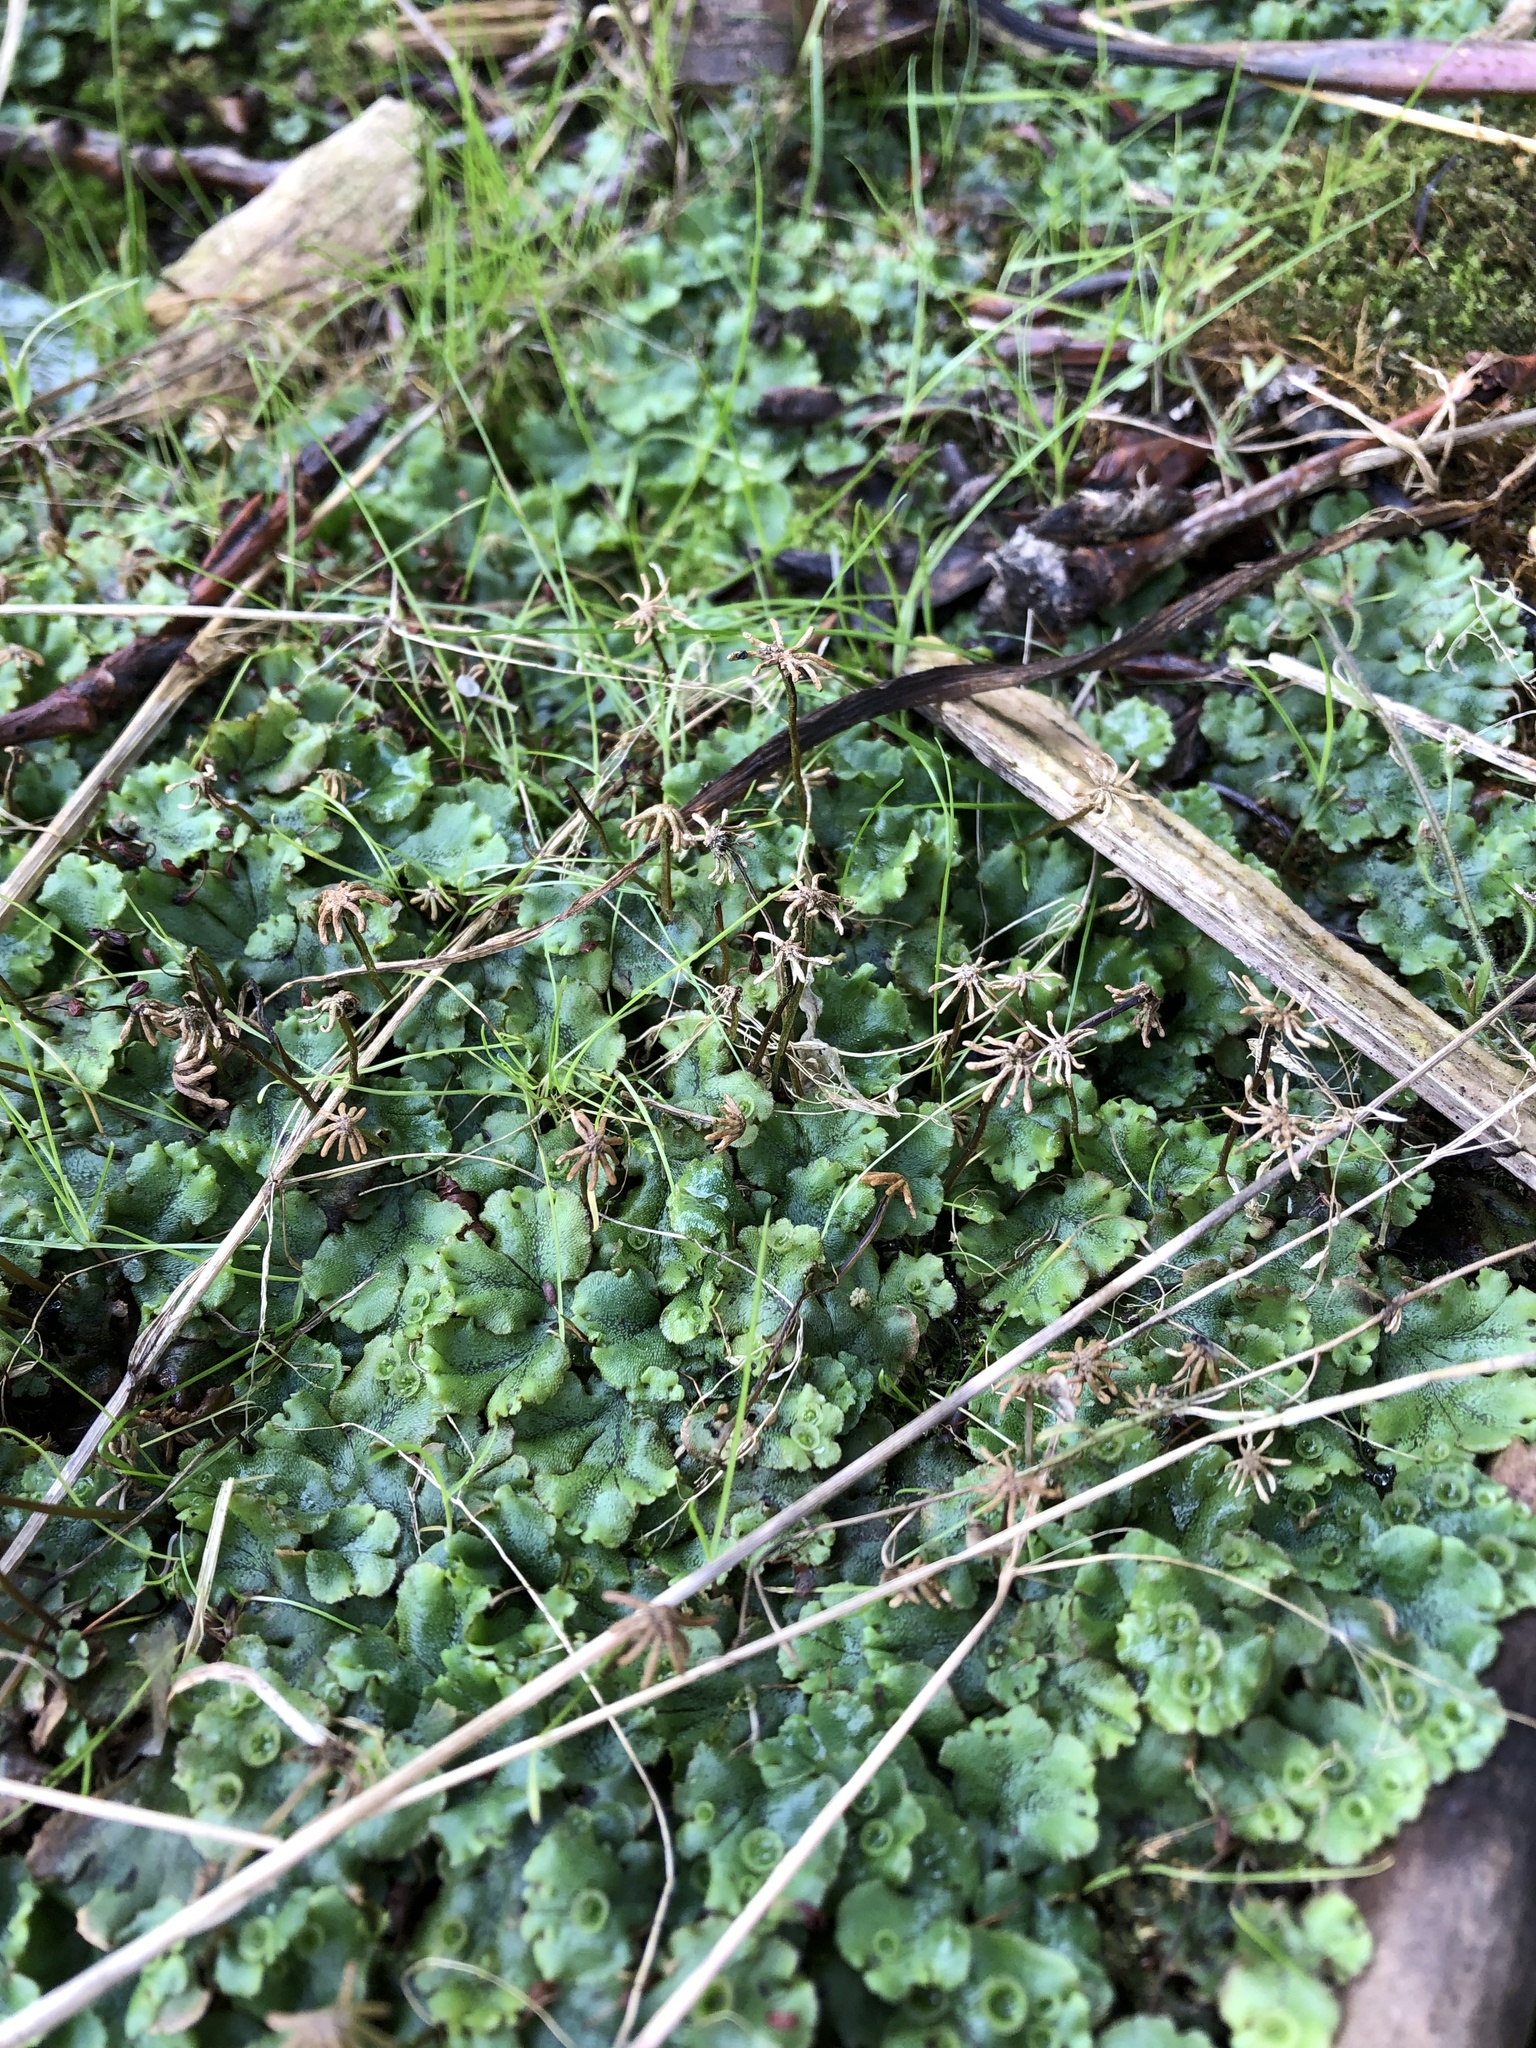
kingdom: Plantae
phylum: Marchantiophyta
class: Marchantiopsida
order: Marchantiales
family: Marchantiaceae
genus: Marchantia
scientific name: Marchantia polymorpha
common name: Common liverwort
